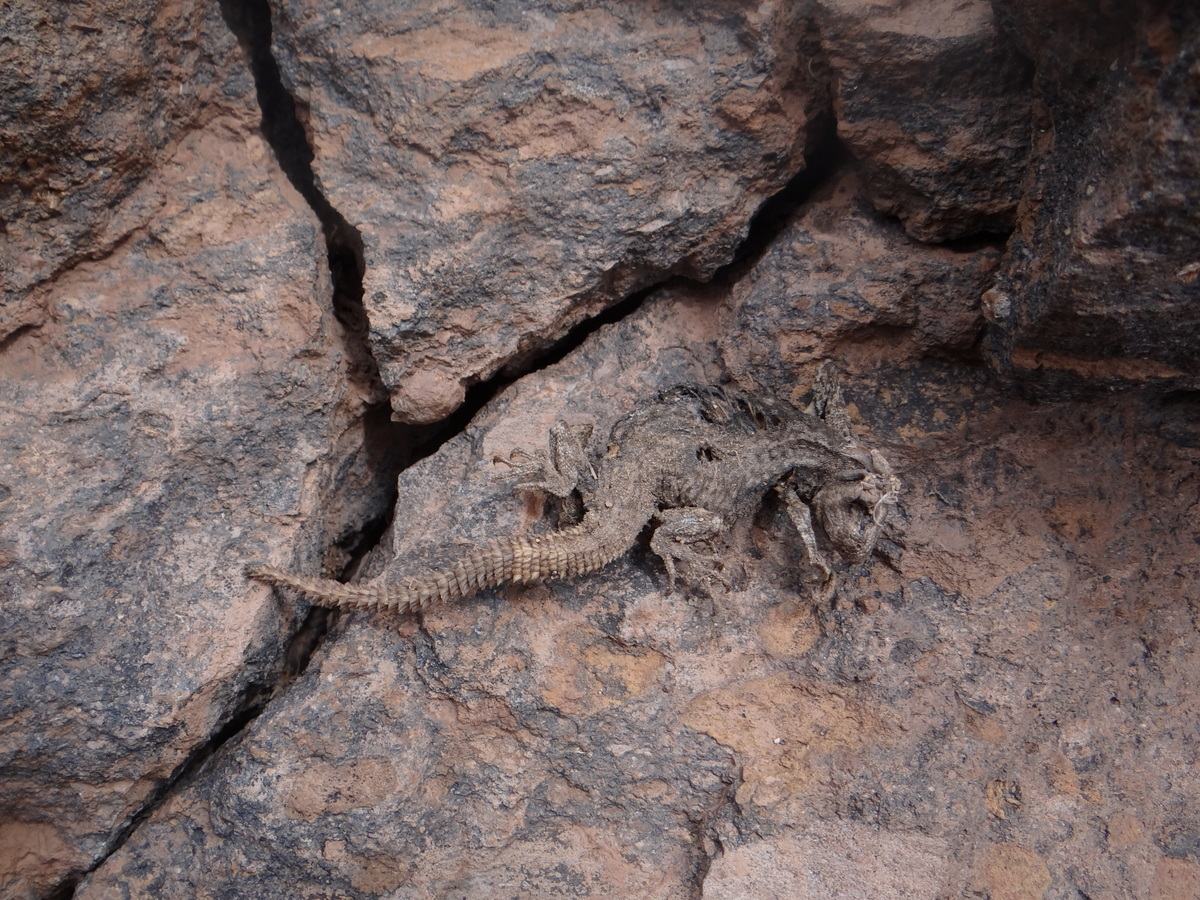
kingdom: Animalia
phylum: Chordata
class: Squamata
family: Liolaemidae
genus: Phymaturus
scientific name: Phymaturus verdugo
